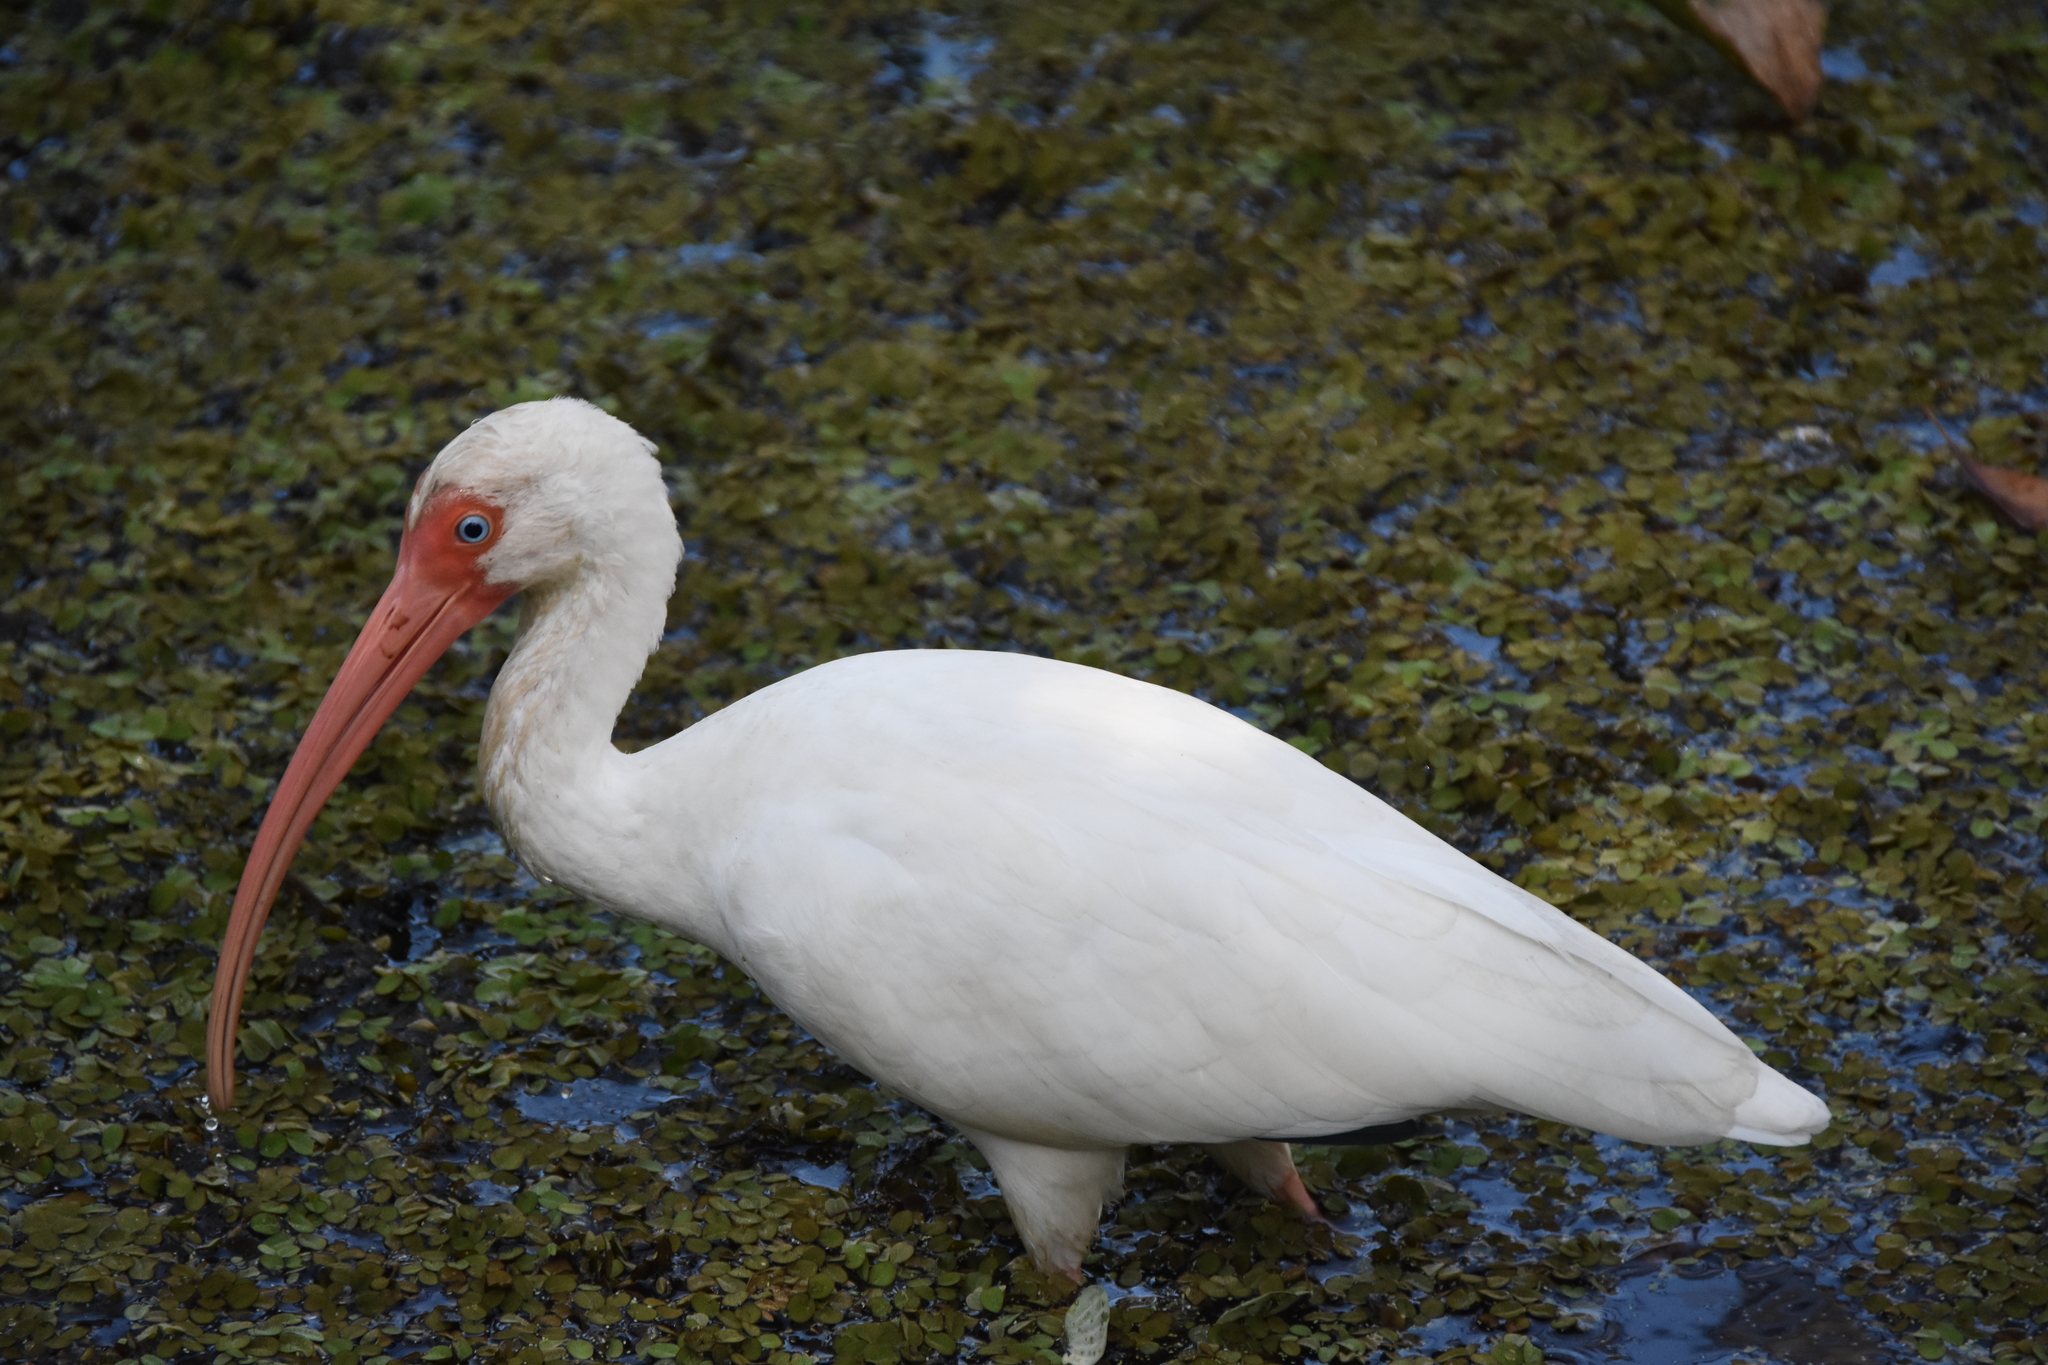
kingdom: Animalia
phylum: Chordata
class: Aves
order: Pelecaniformes
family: Threskiornithidae
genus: Eudocimus
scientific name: Eudocimus albus
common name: White ibis
